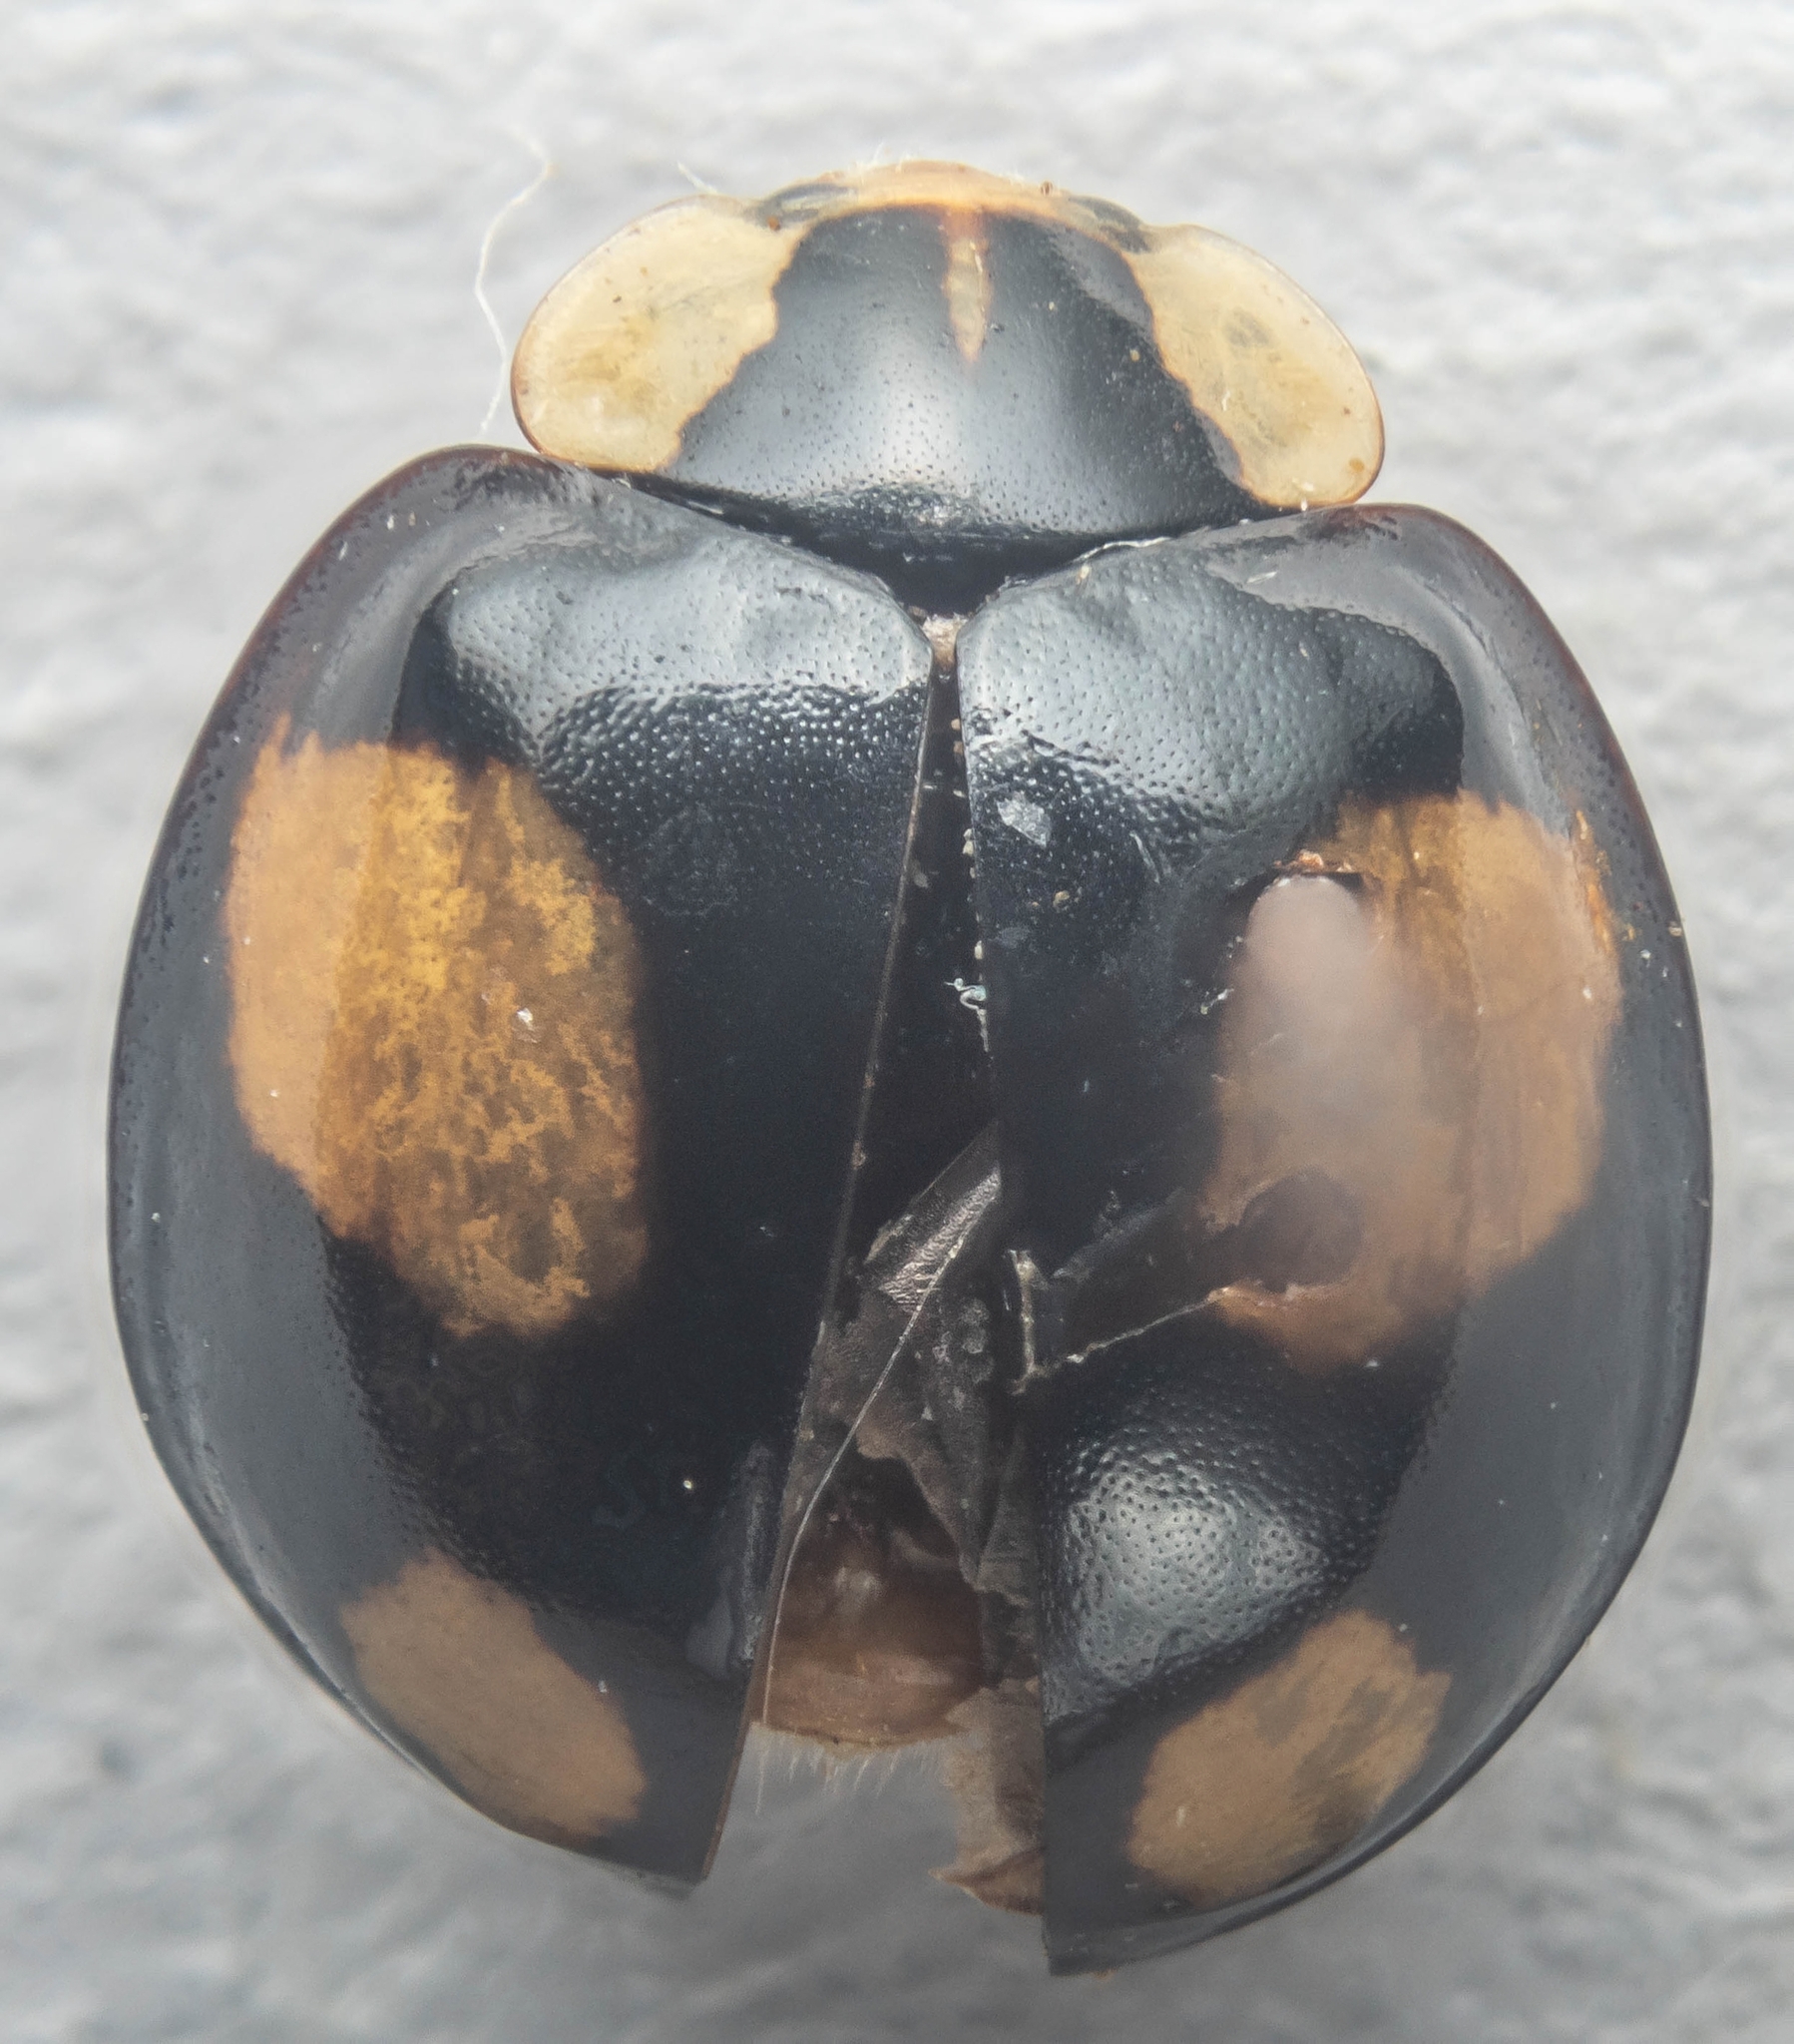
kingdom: Animalia
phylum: Arthropoda
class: Insecta
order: Coleoptera
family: Coccinellidae
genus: Harmonia
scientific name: Harmonia axyridis
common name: Harlequin ladybird
